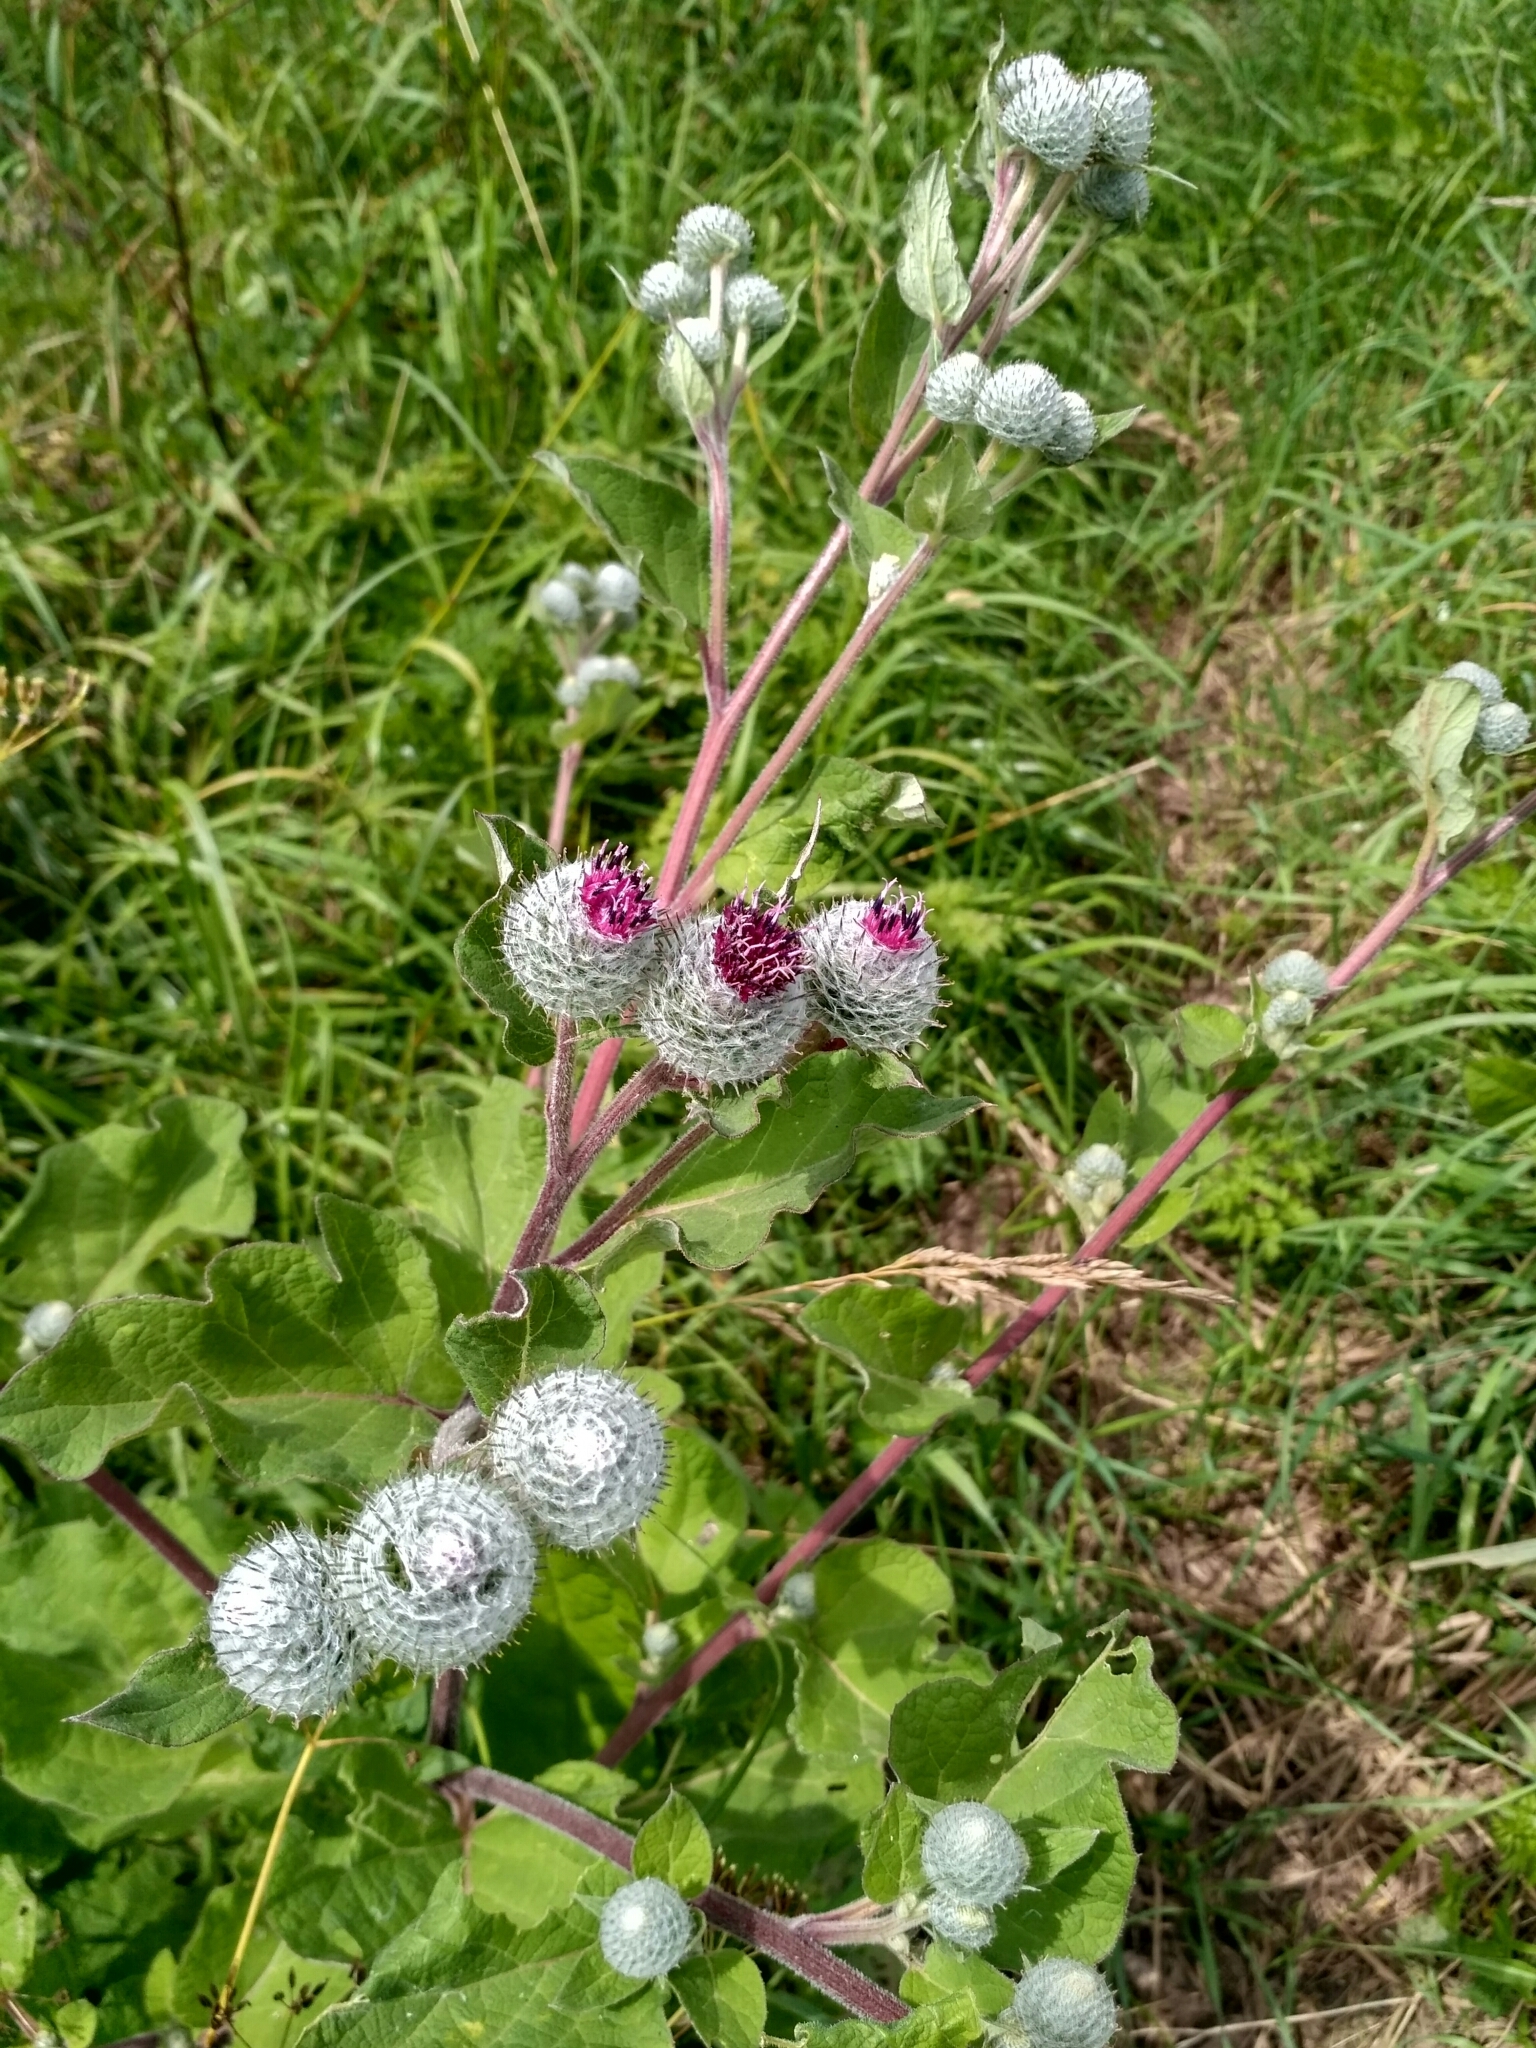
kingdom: Plantae
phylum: Tracheophyta
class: Magnoliopsida
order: Asterales
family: Asteraceae
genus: Arctium
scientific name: Arctium tomentosum
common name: Woolly burdock
